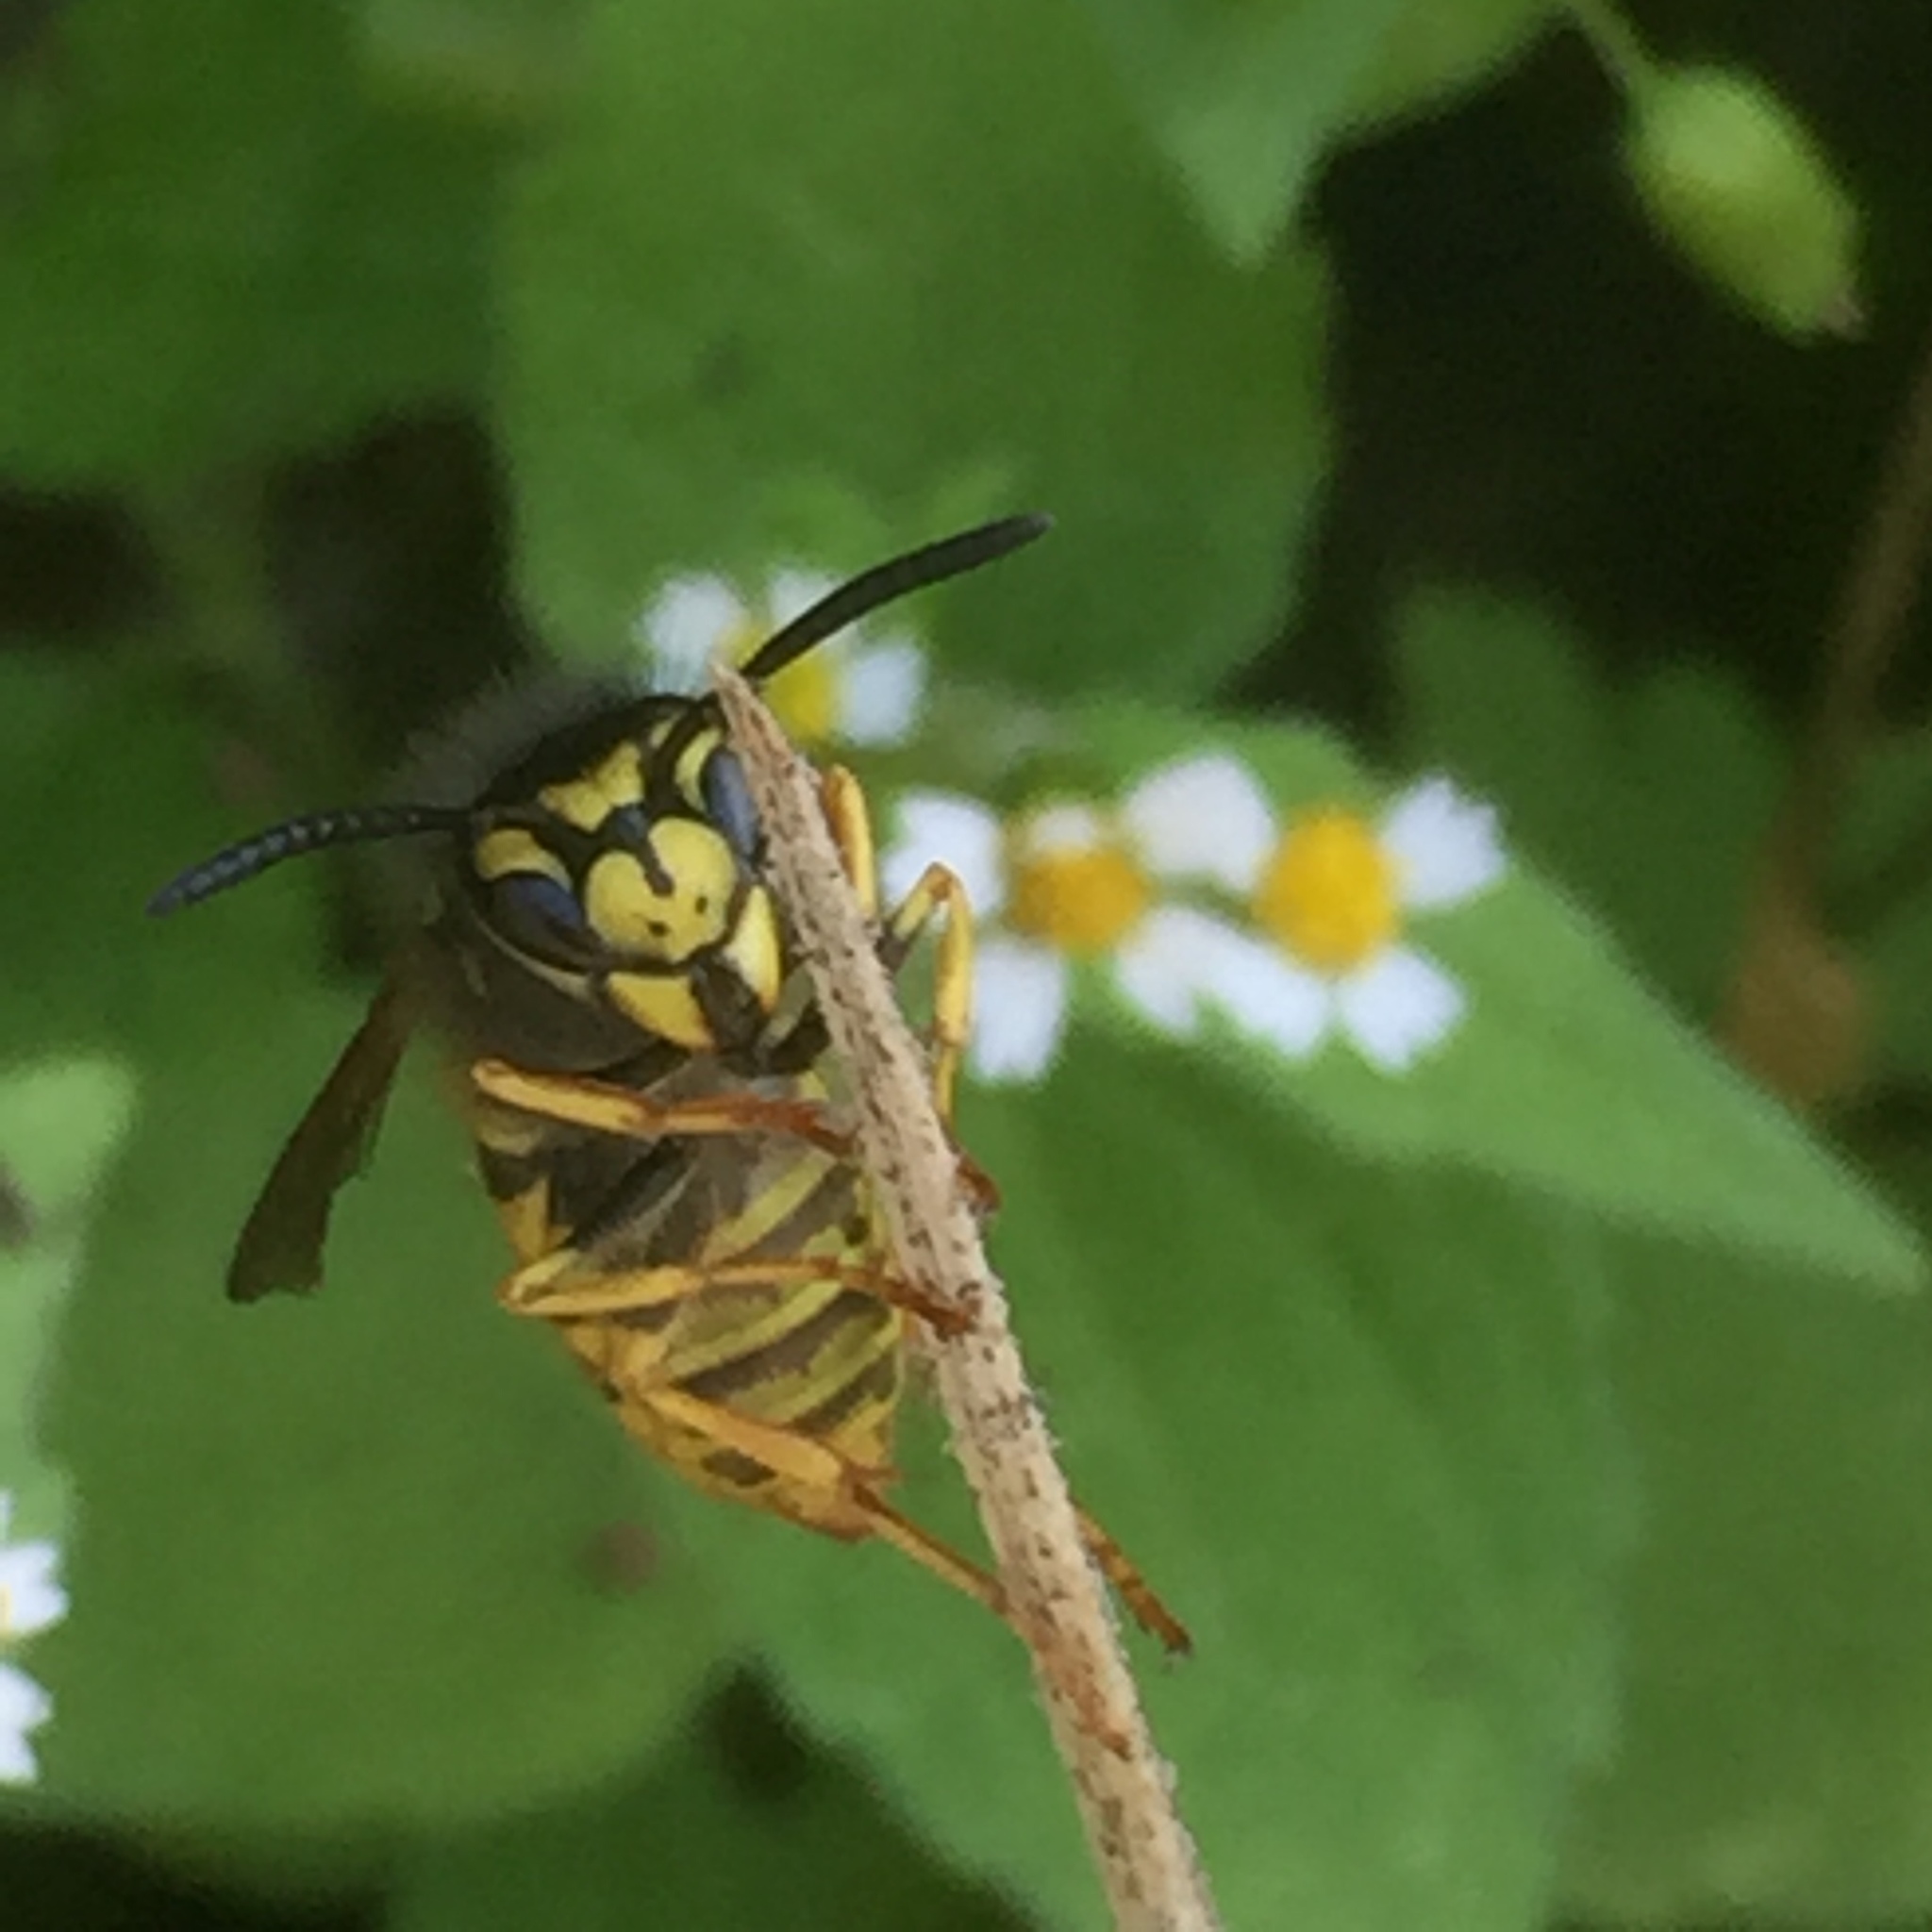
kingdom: Animalia
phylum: Arthropoda
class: Insecta
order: Hymenoptera
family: Vespidae
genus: Vespula
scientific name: Vespula germanica
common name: German wasp
